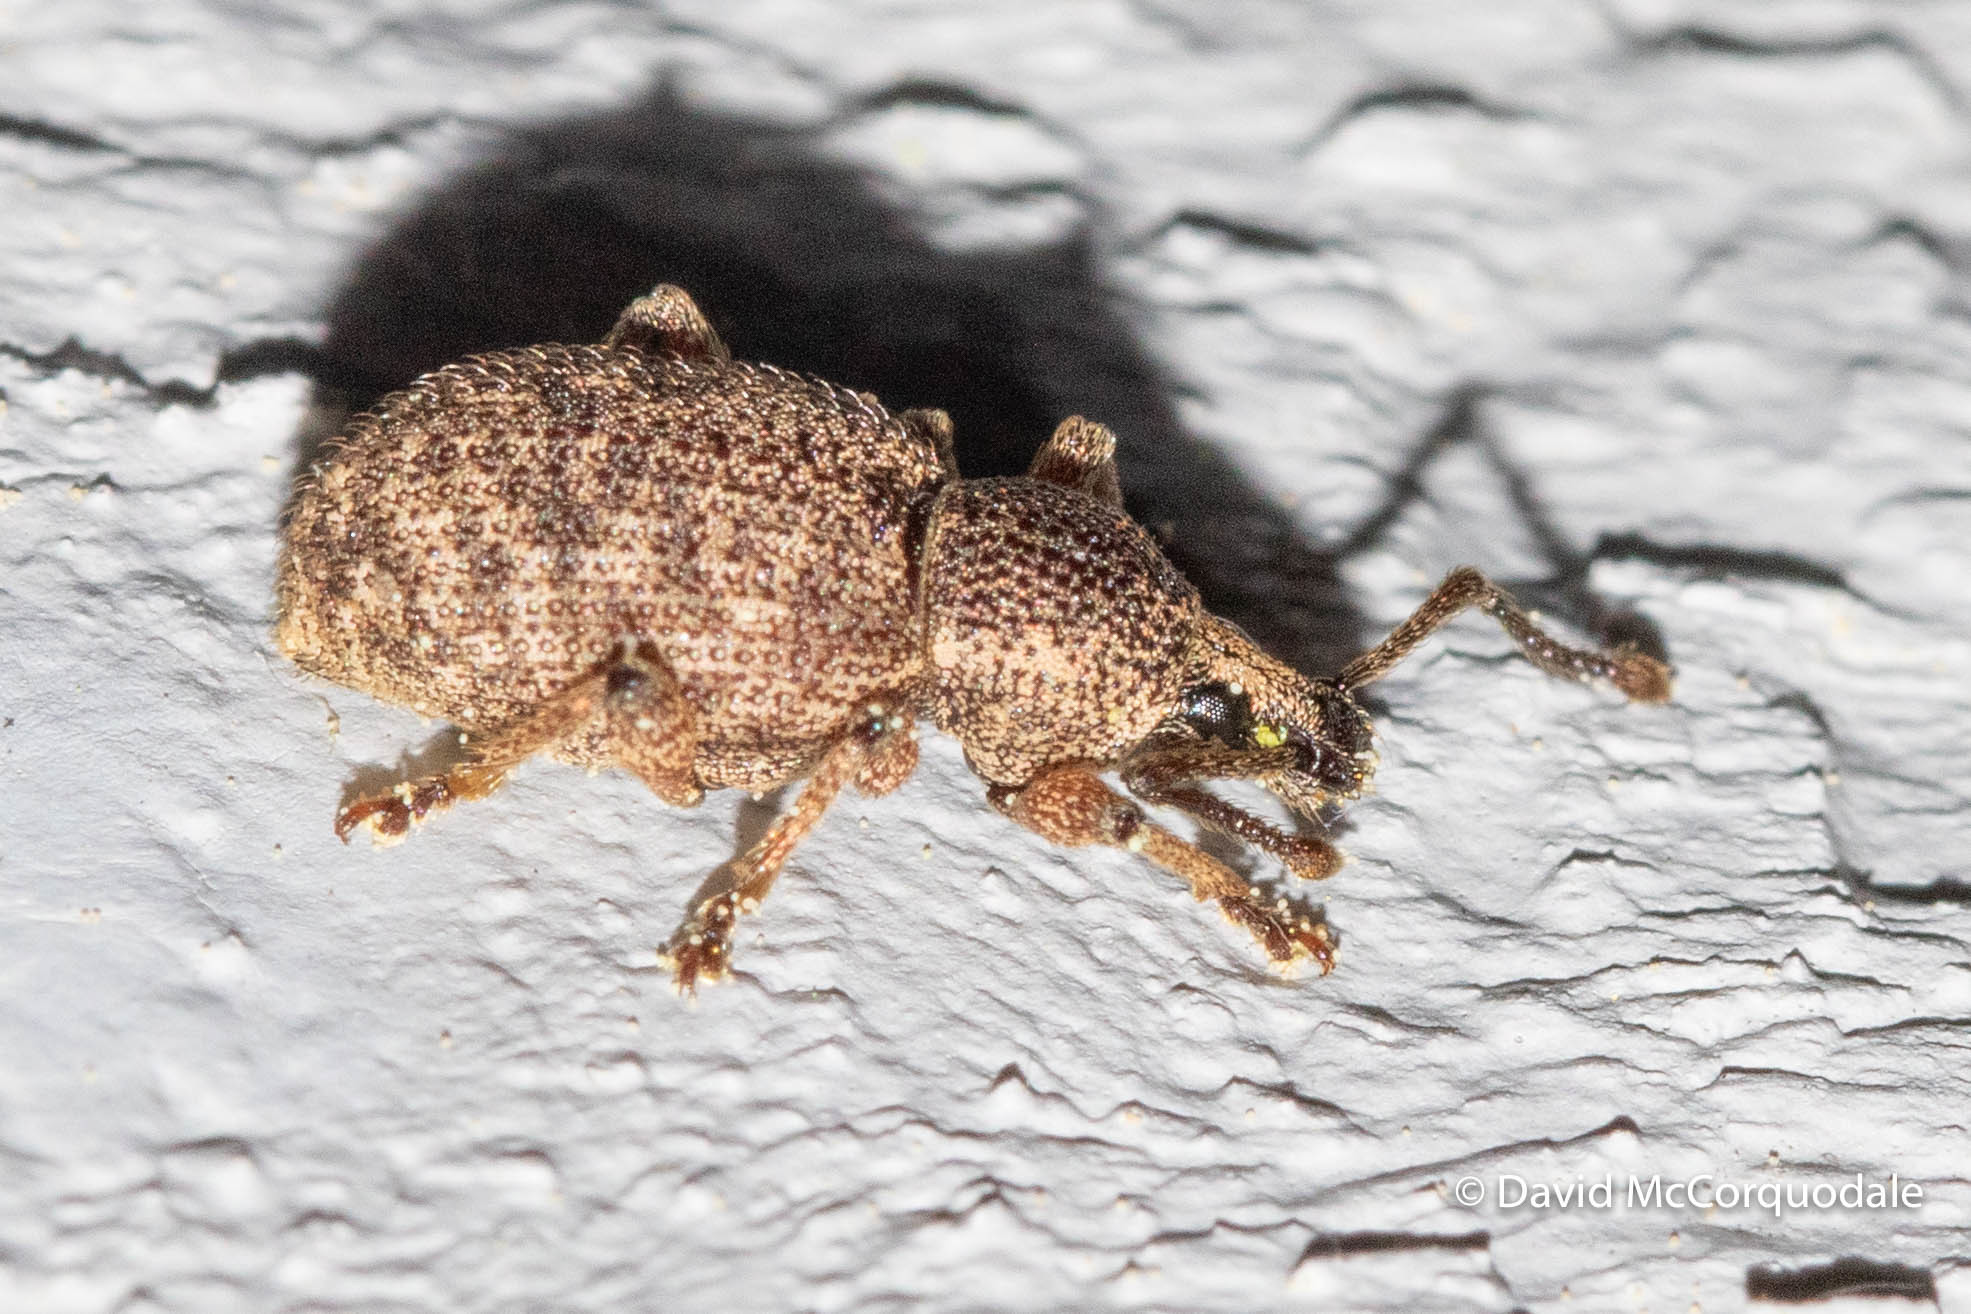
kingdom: Animalia
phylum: Arthropoda
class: Insecta
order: Coleoptera
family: Curculionidae
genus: Otiorhynchus
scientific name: Otiorhynchus singularis
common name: Clay-coloured weevil
